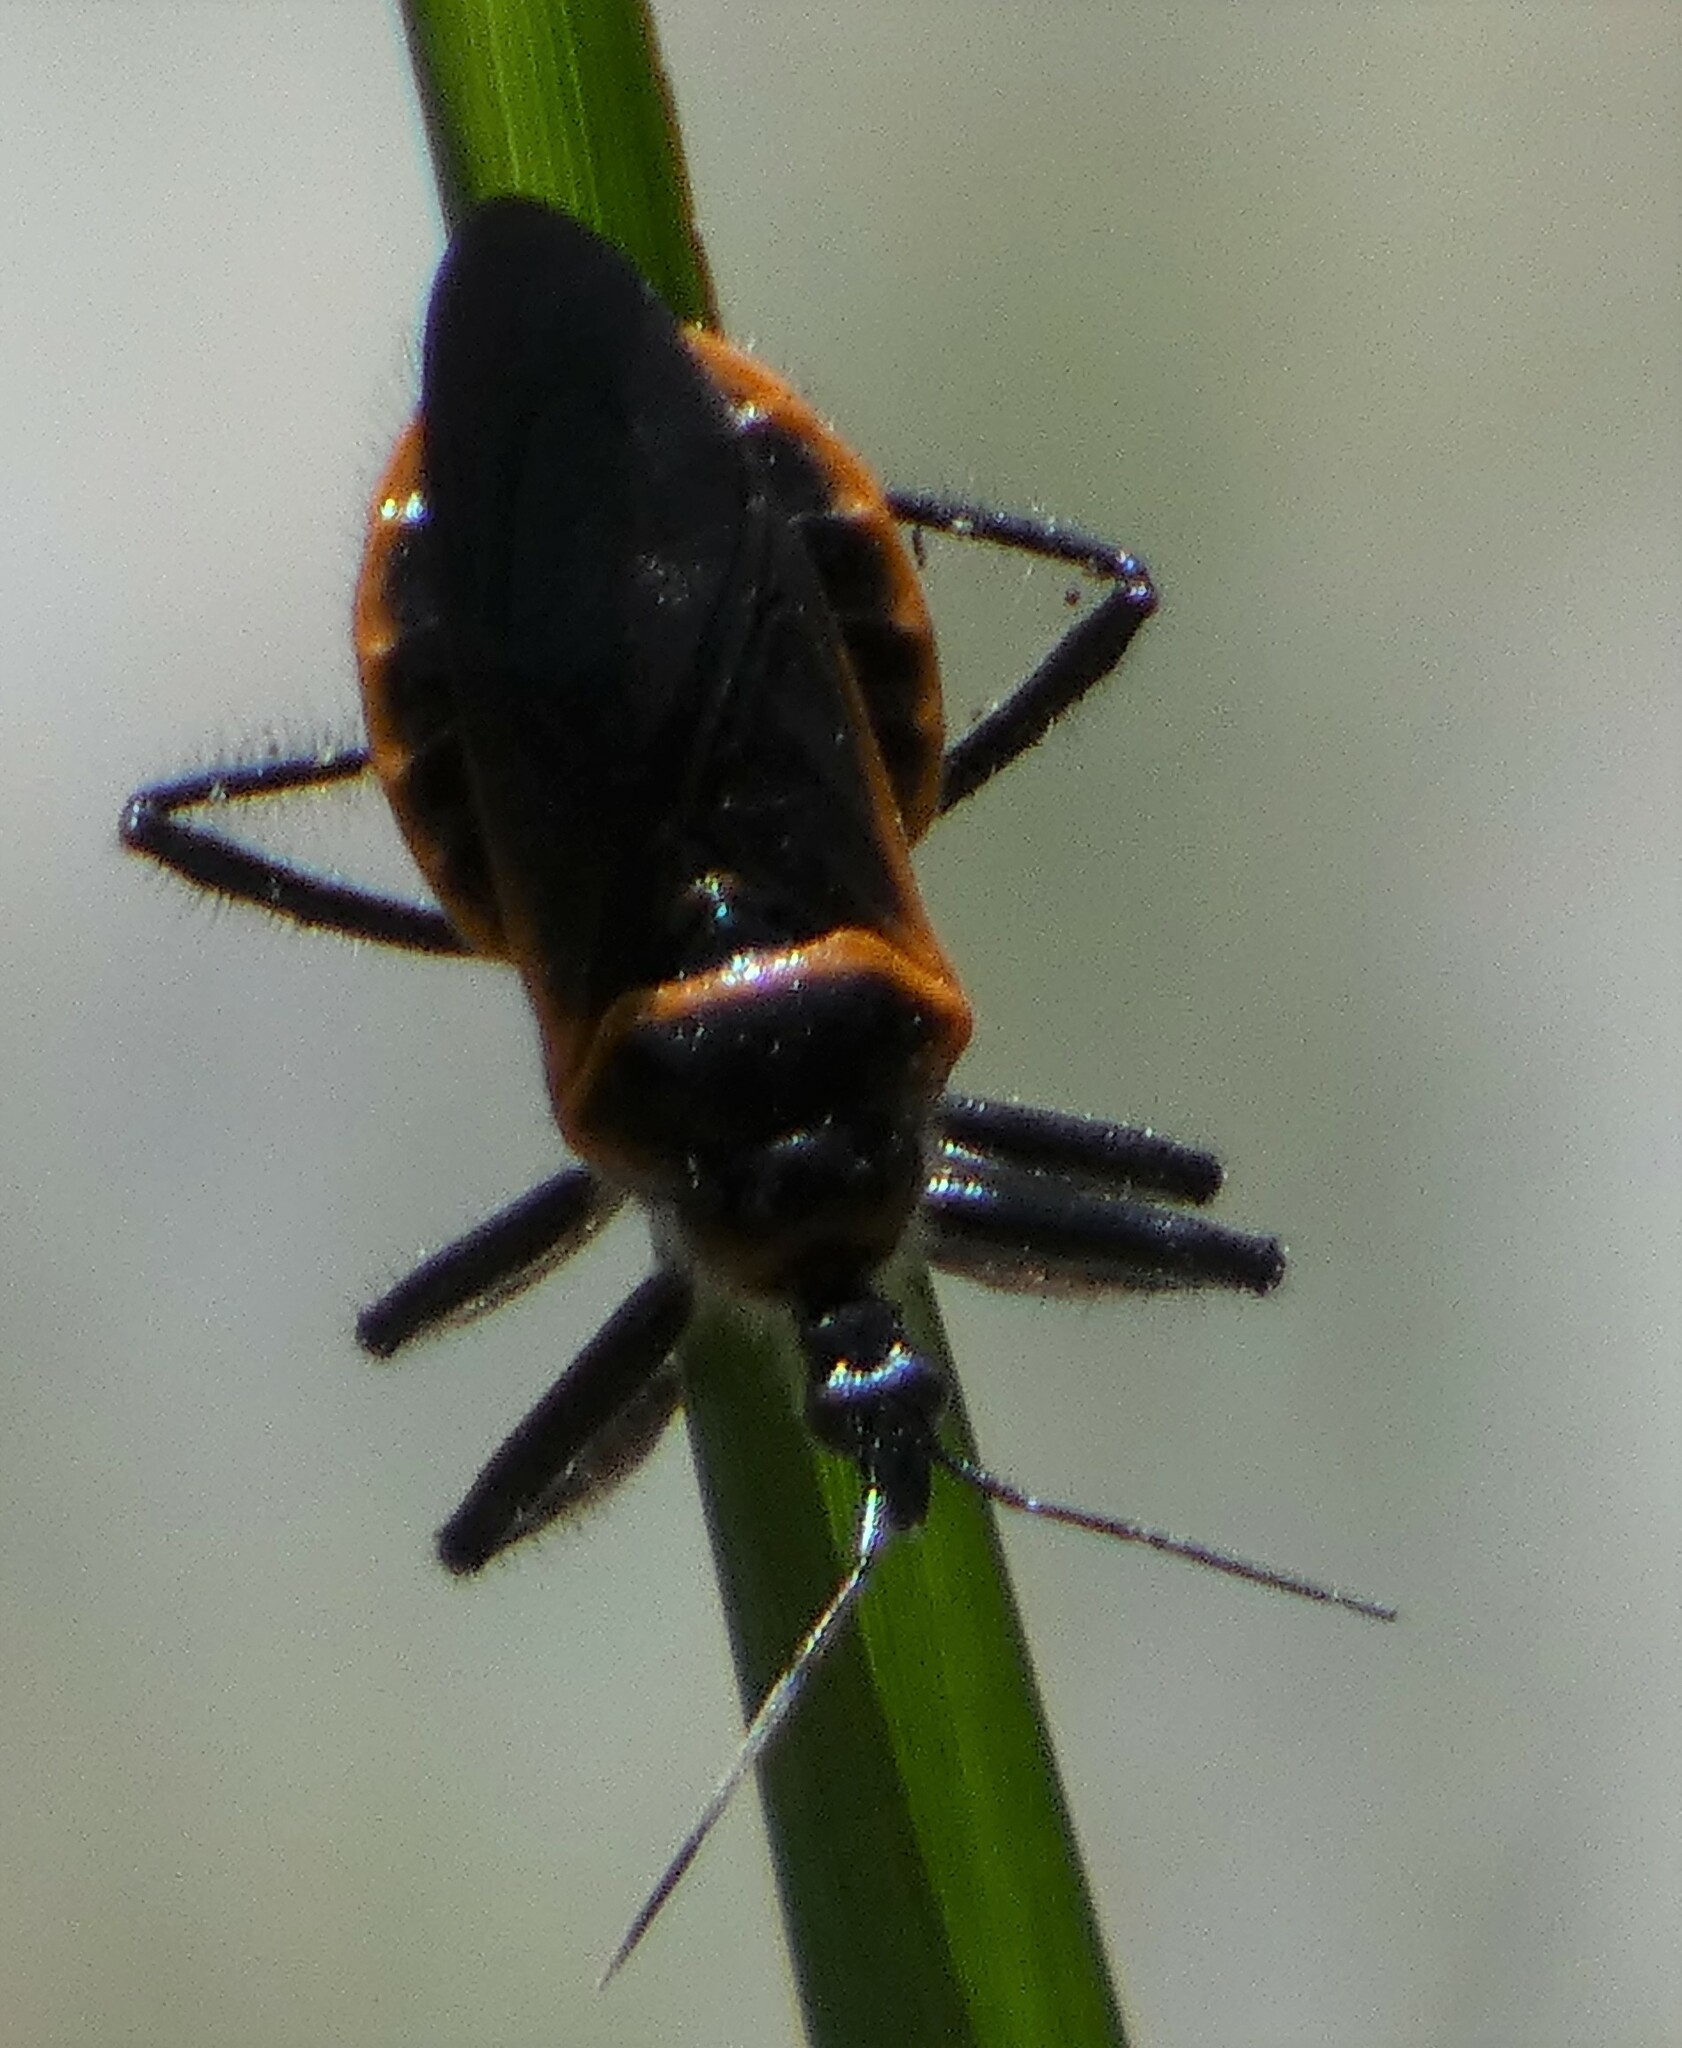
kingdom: Animalia
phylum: Arthropoda
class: Insecta
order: Hemiptera
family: Reduviidae
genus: Apiomerus
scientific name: Apiomerus crassipes
